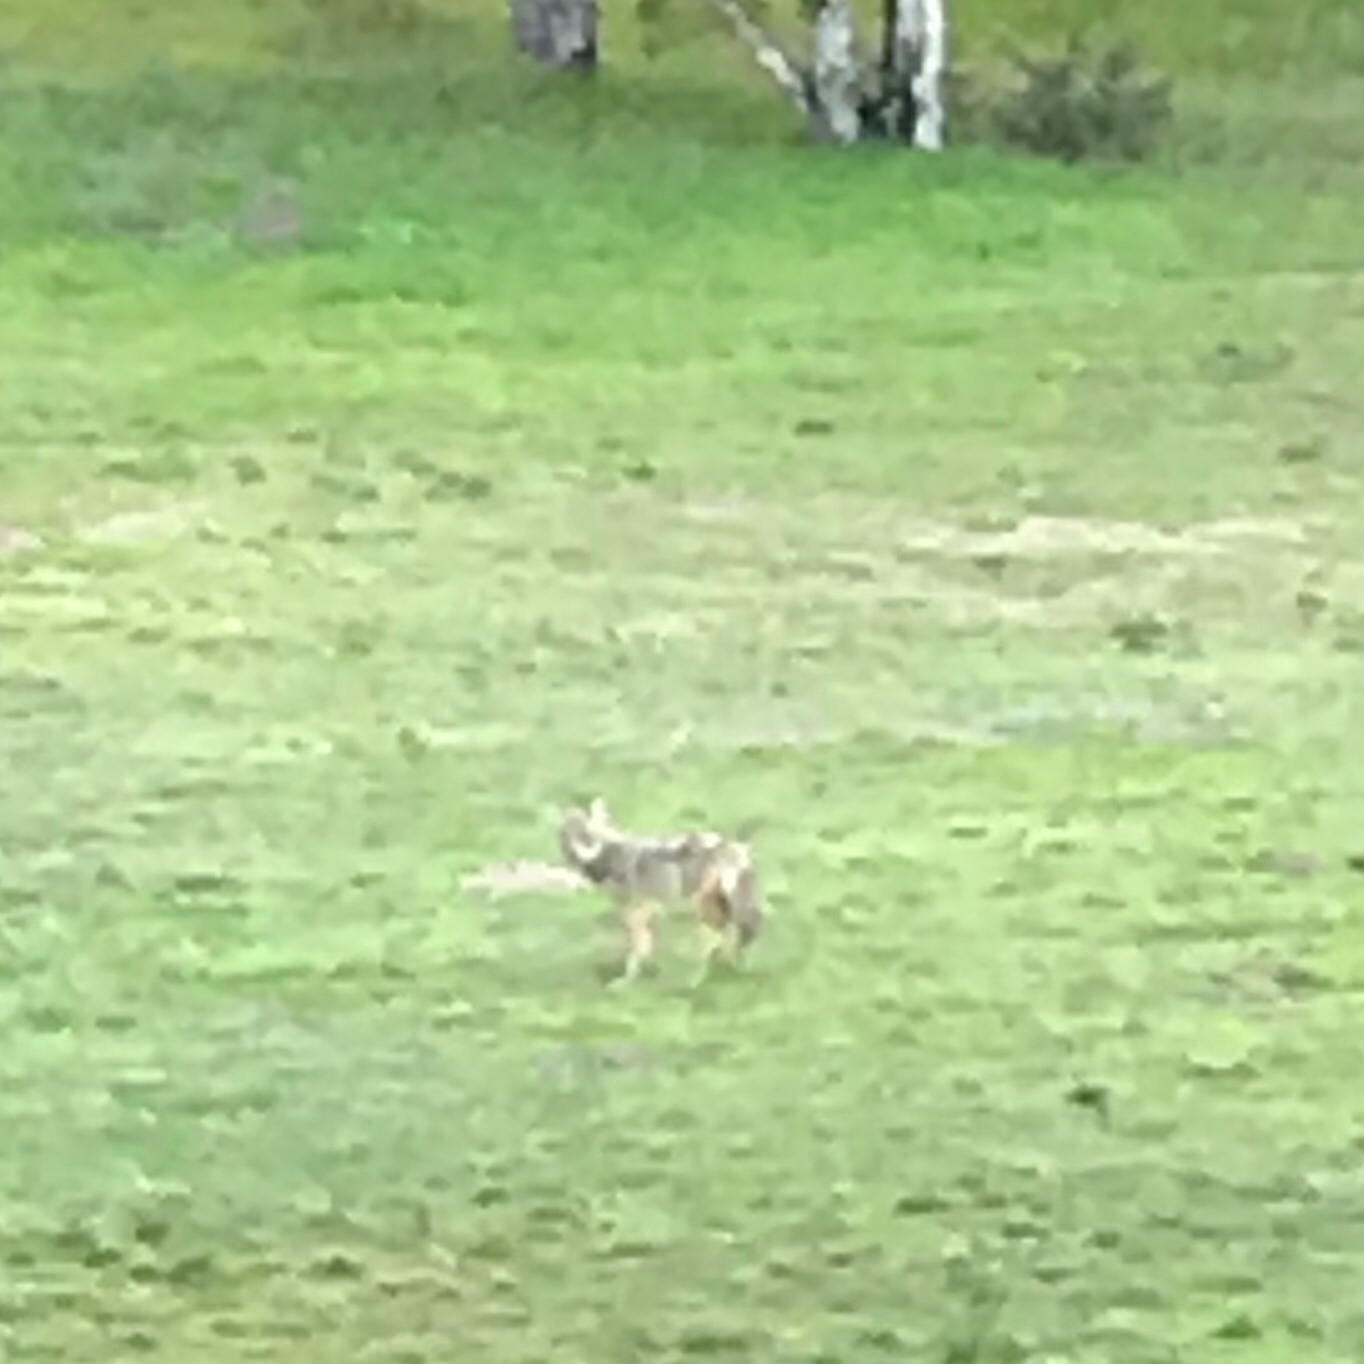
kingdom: Animalia
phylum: Chordata
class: Mammalia
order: Carnivora
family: Canidae
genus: Canis
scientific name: Canis latrans
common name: Coyote
